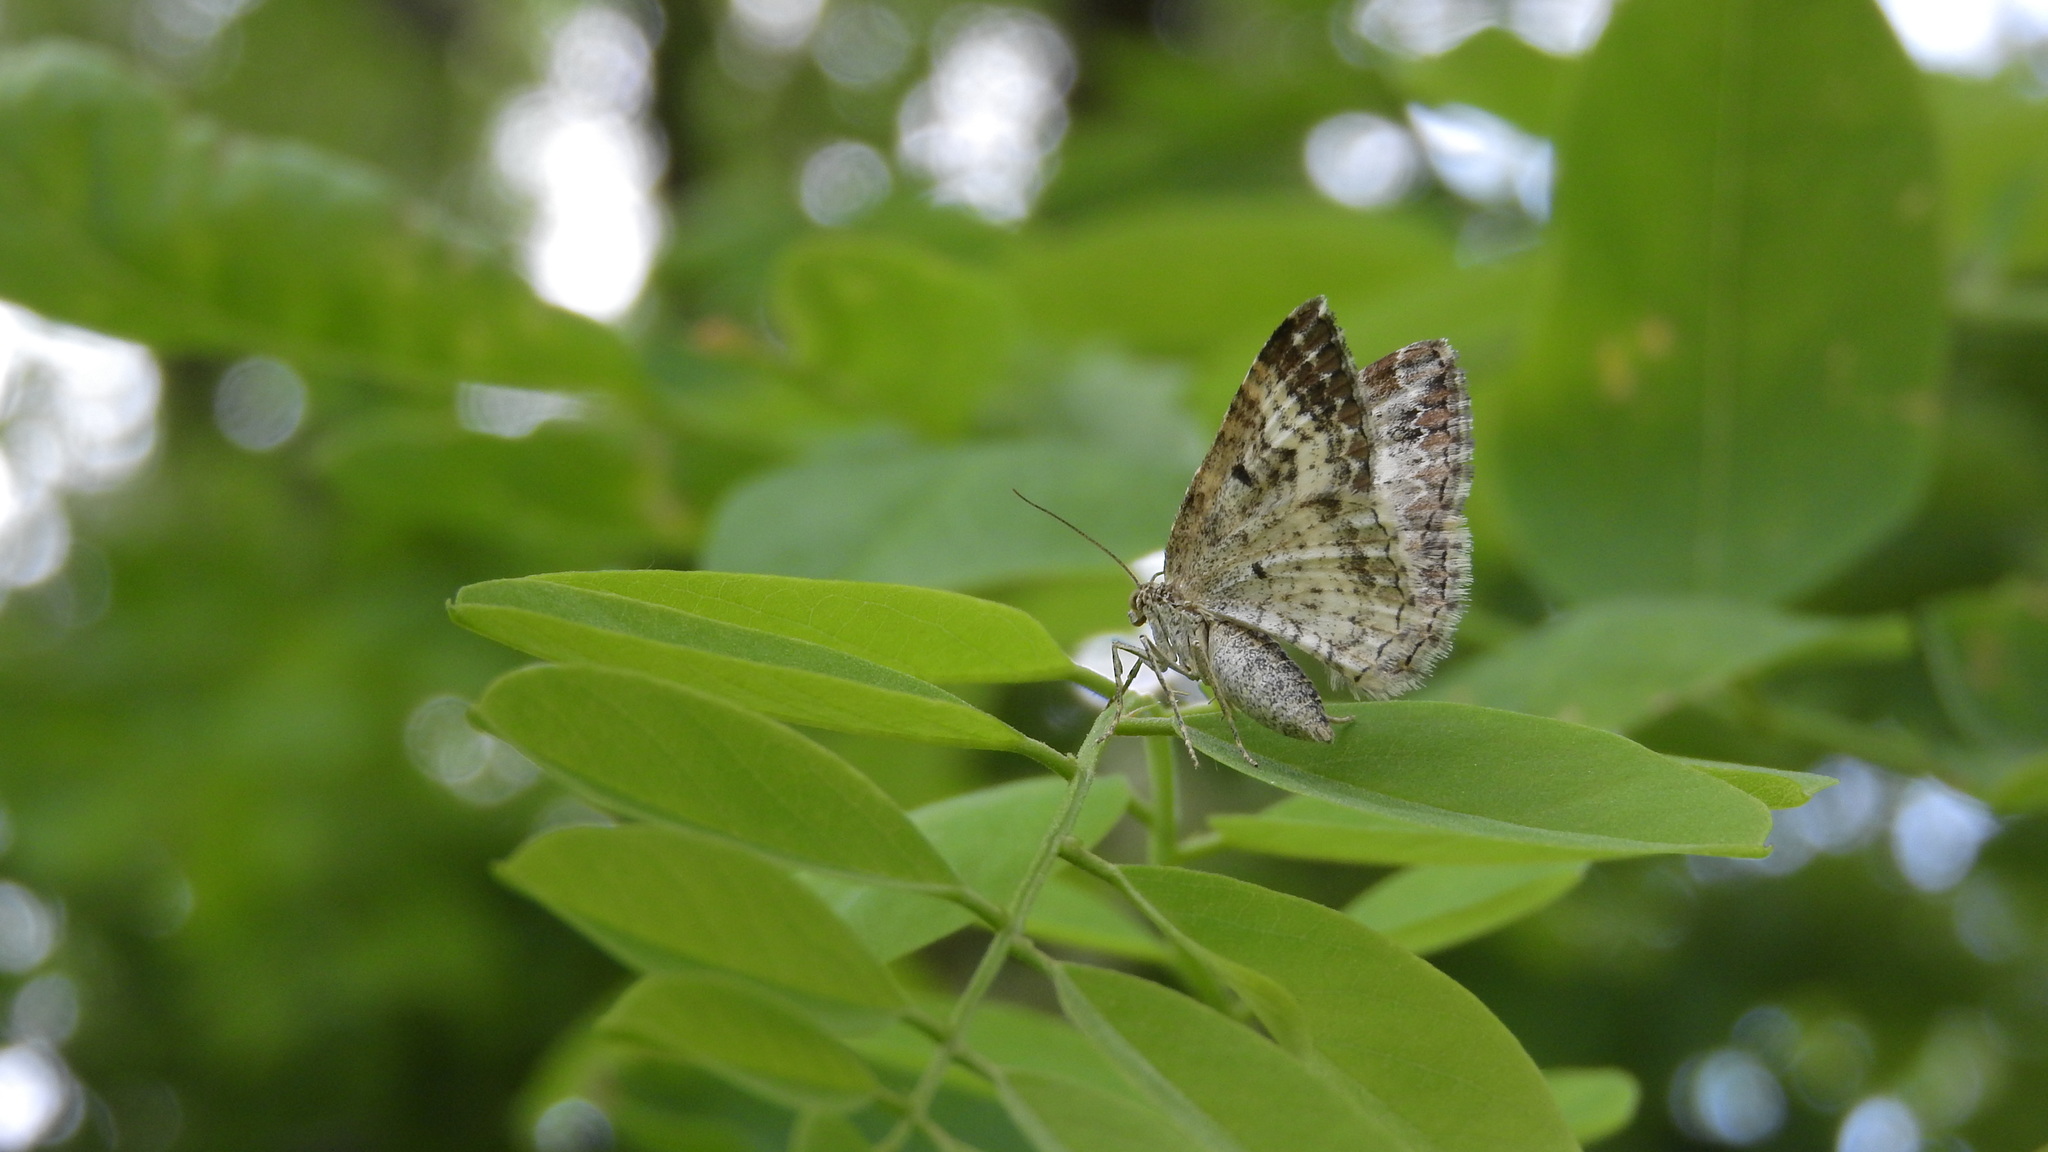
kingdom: Animalia
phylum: Arthropoda
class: Insecta
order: Lepidoptera
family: Geometridae
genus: Epirrhoe
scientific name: Epirrhoe alternata
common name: Common carpet
